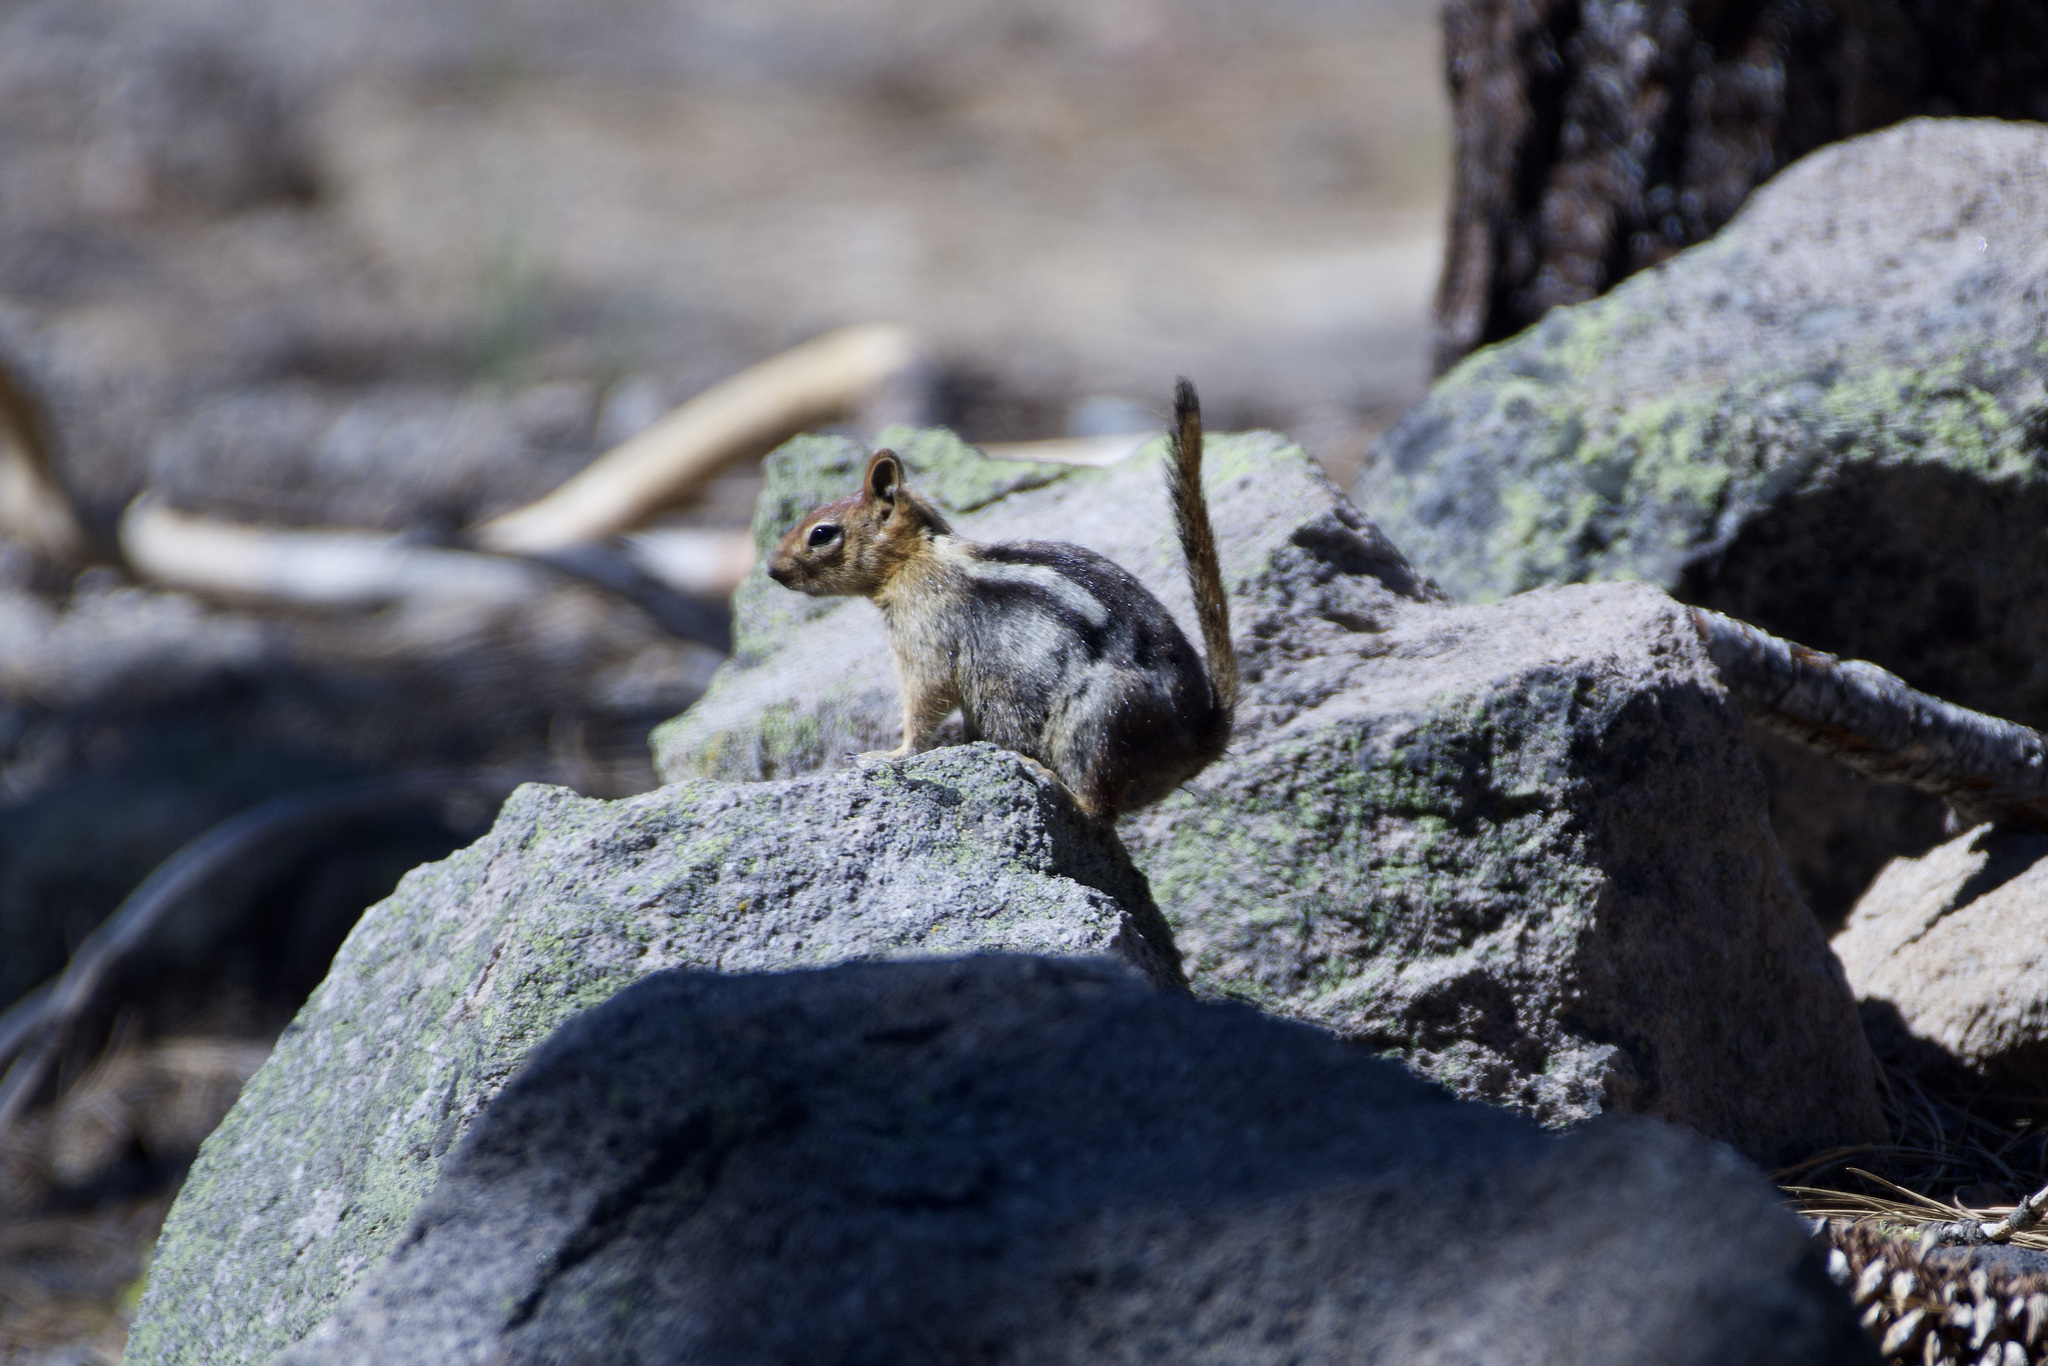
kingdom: Animalia
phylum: Chordata
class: Mammalia
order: Rodentia
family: Sciuridae
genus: Callospermophilus
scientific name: Callospermophilus lateralis
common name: Golden-mantled ground squirrel
